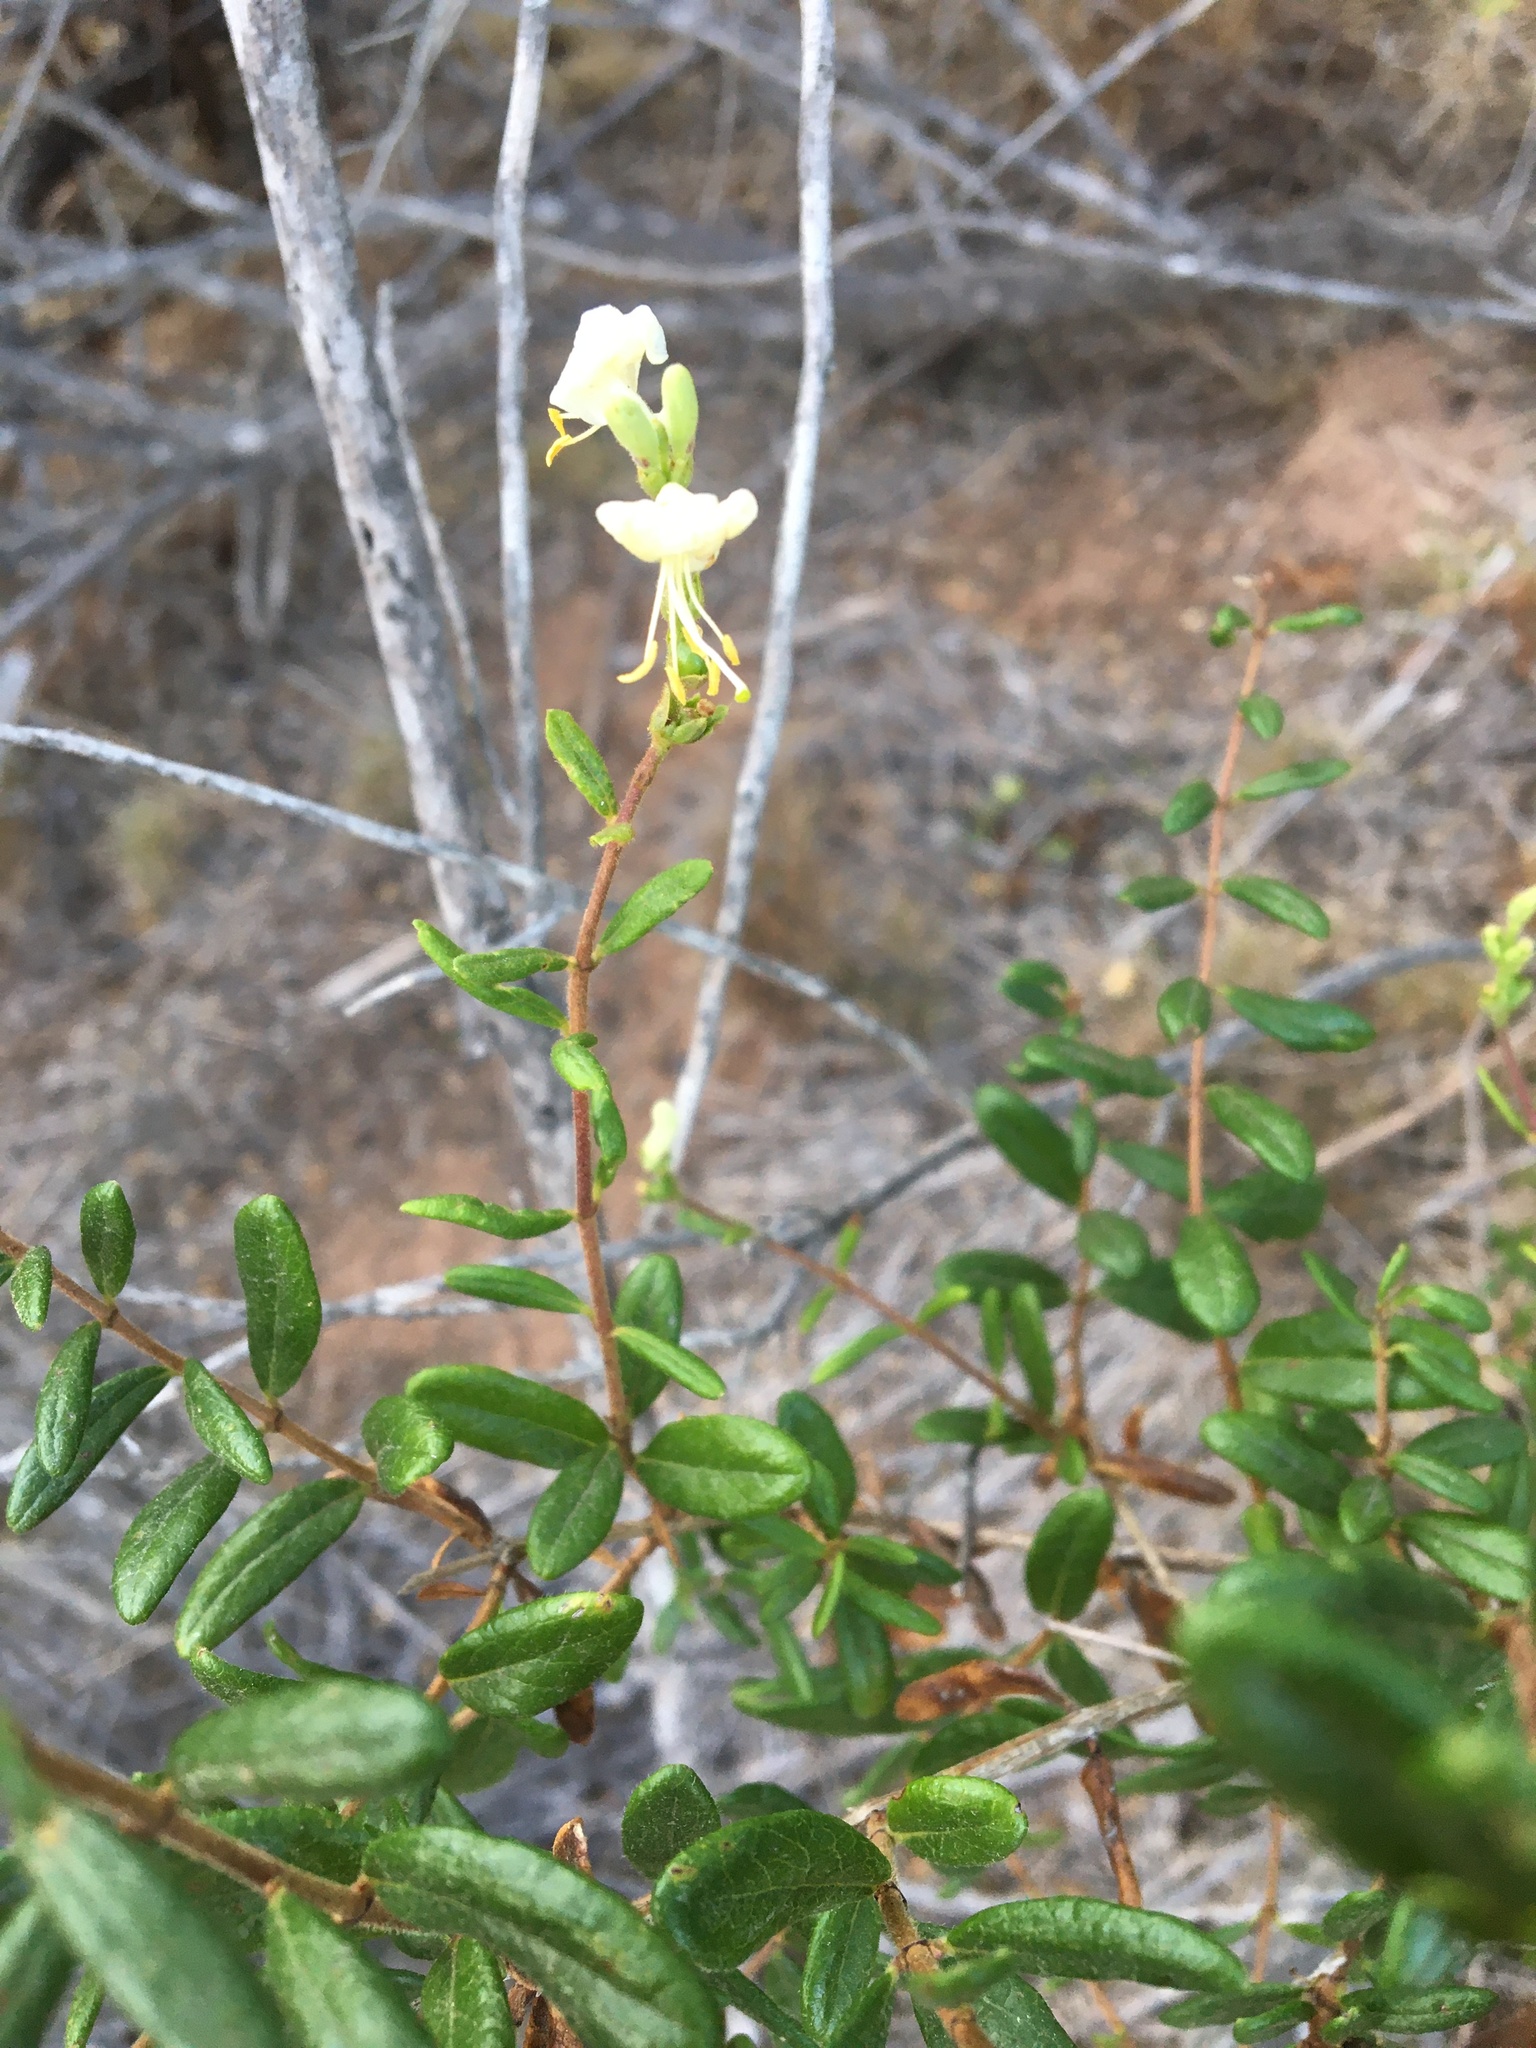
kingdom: Plantae
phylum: Tracheophyta
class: Magnoliopsida
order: Dipsacales
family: Caprifoliaceae
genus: Lonicera
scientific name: Lonicera subspicata
